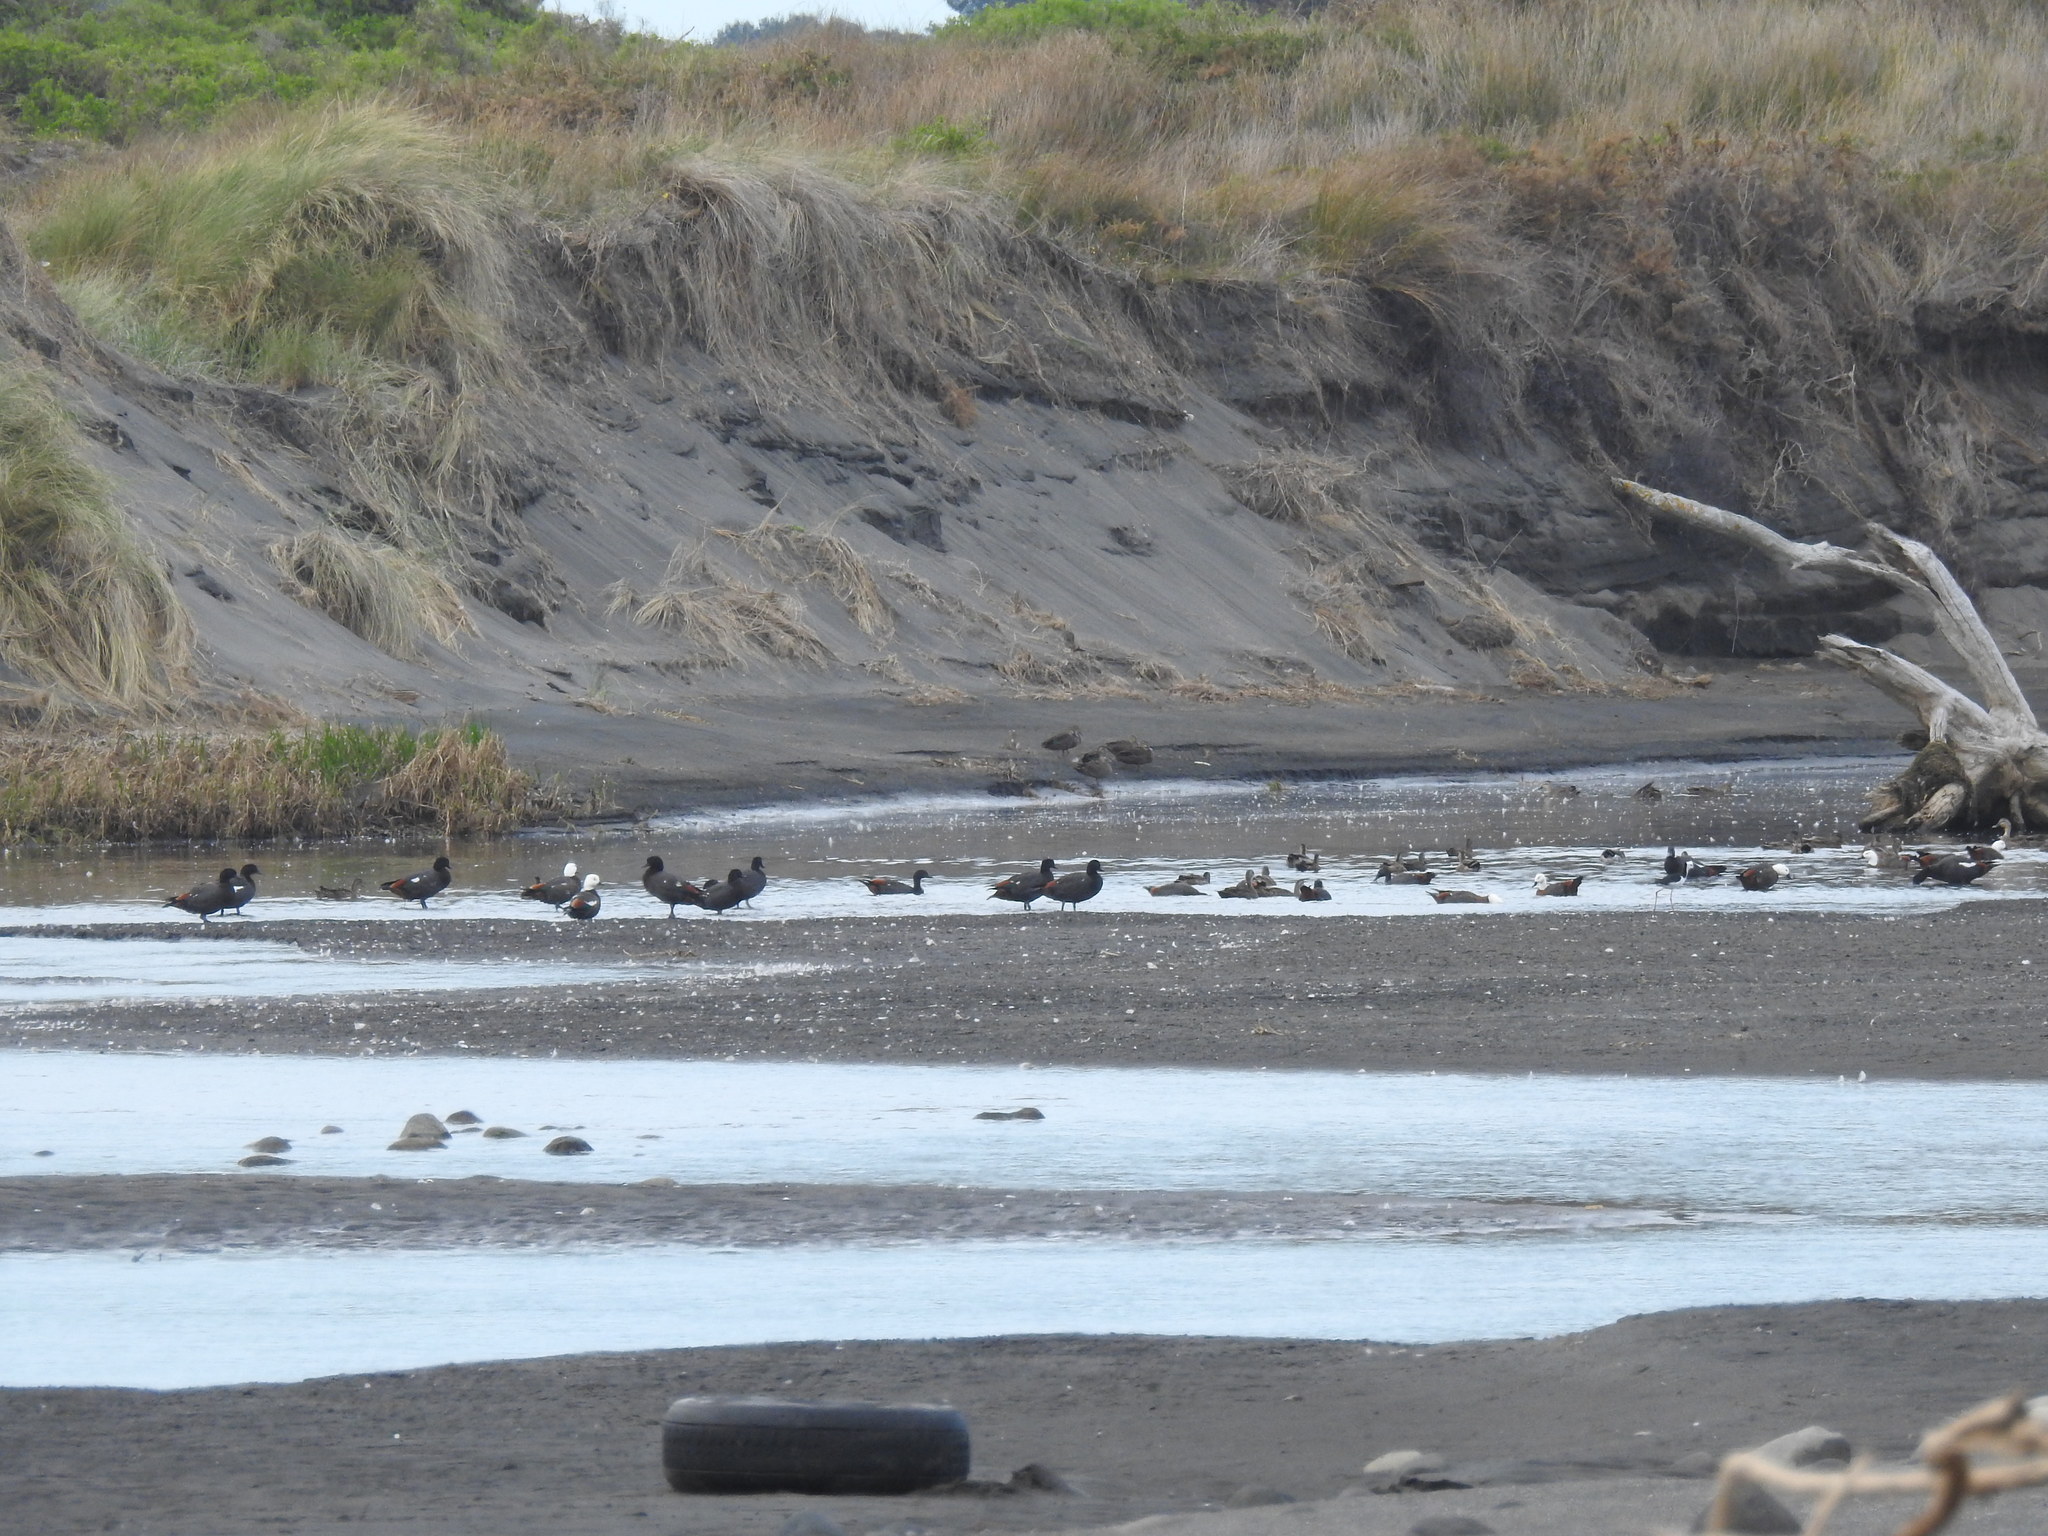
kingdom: Animalia
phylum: Chordata
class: Aves
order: Anseriformes
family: Anatidae
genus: Tadorna
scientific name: Tadorna variegata
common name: Paradise shelduck
